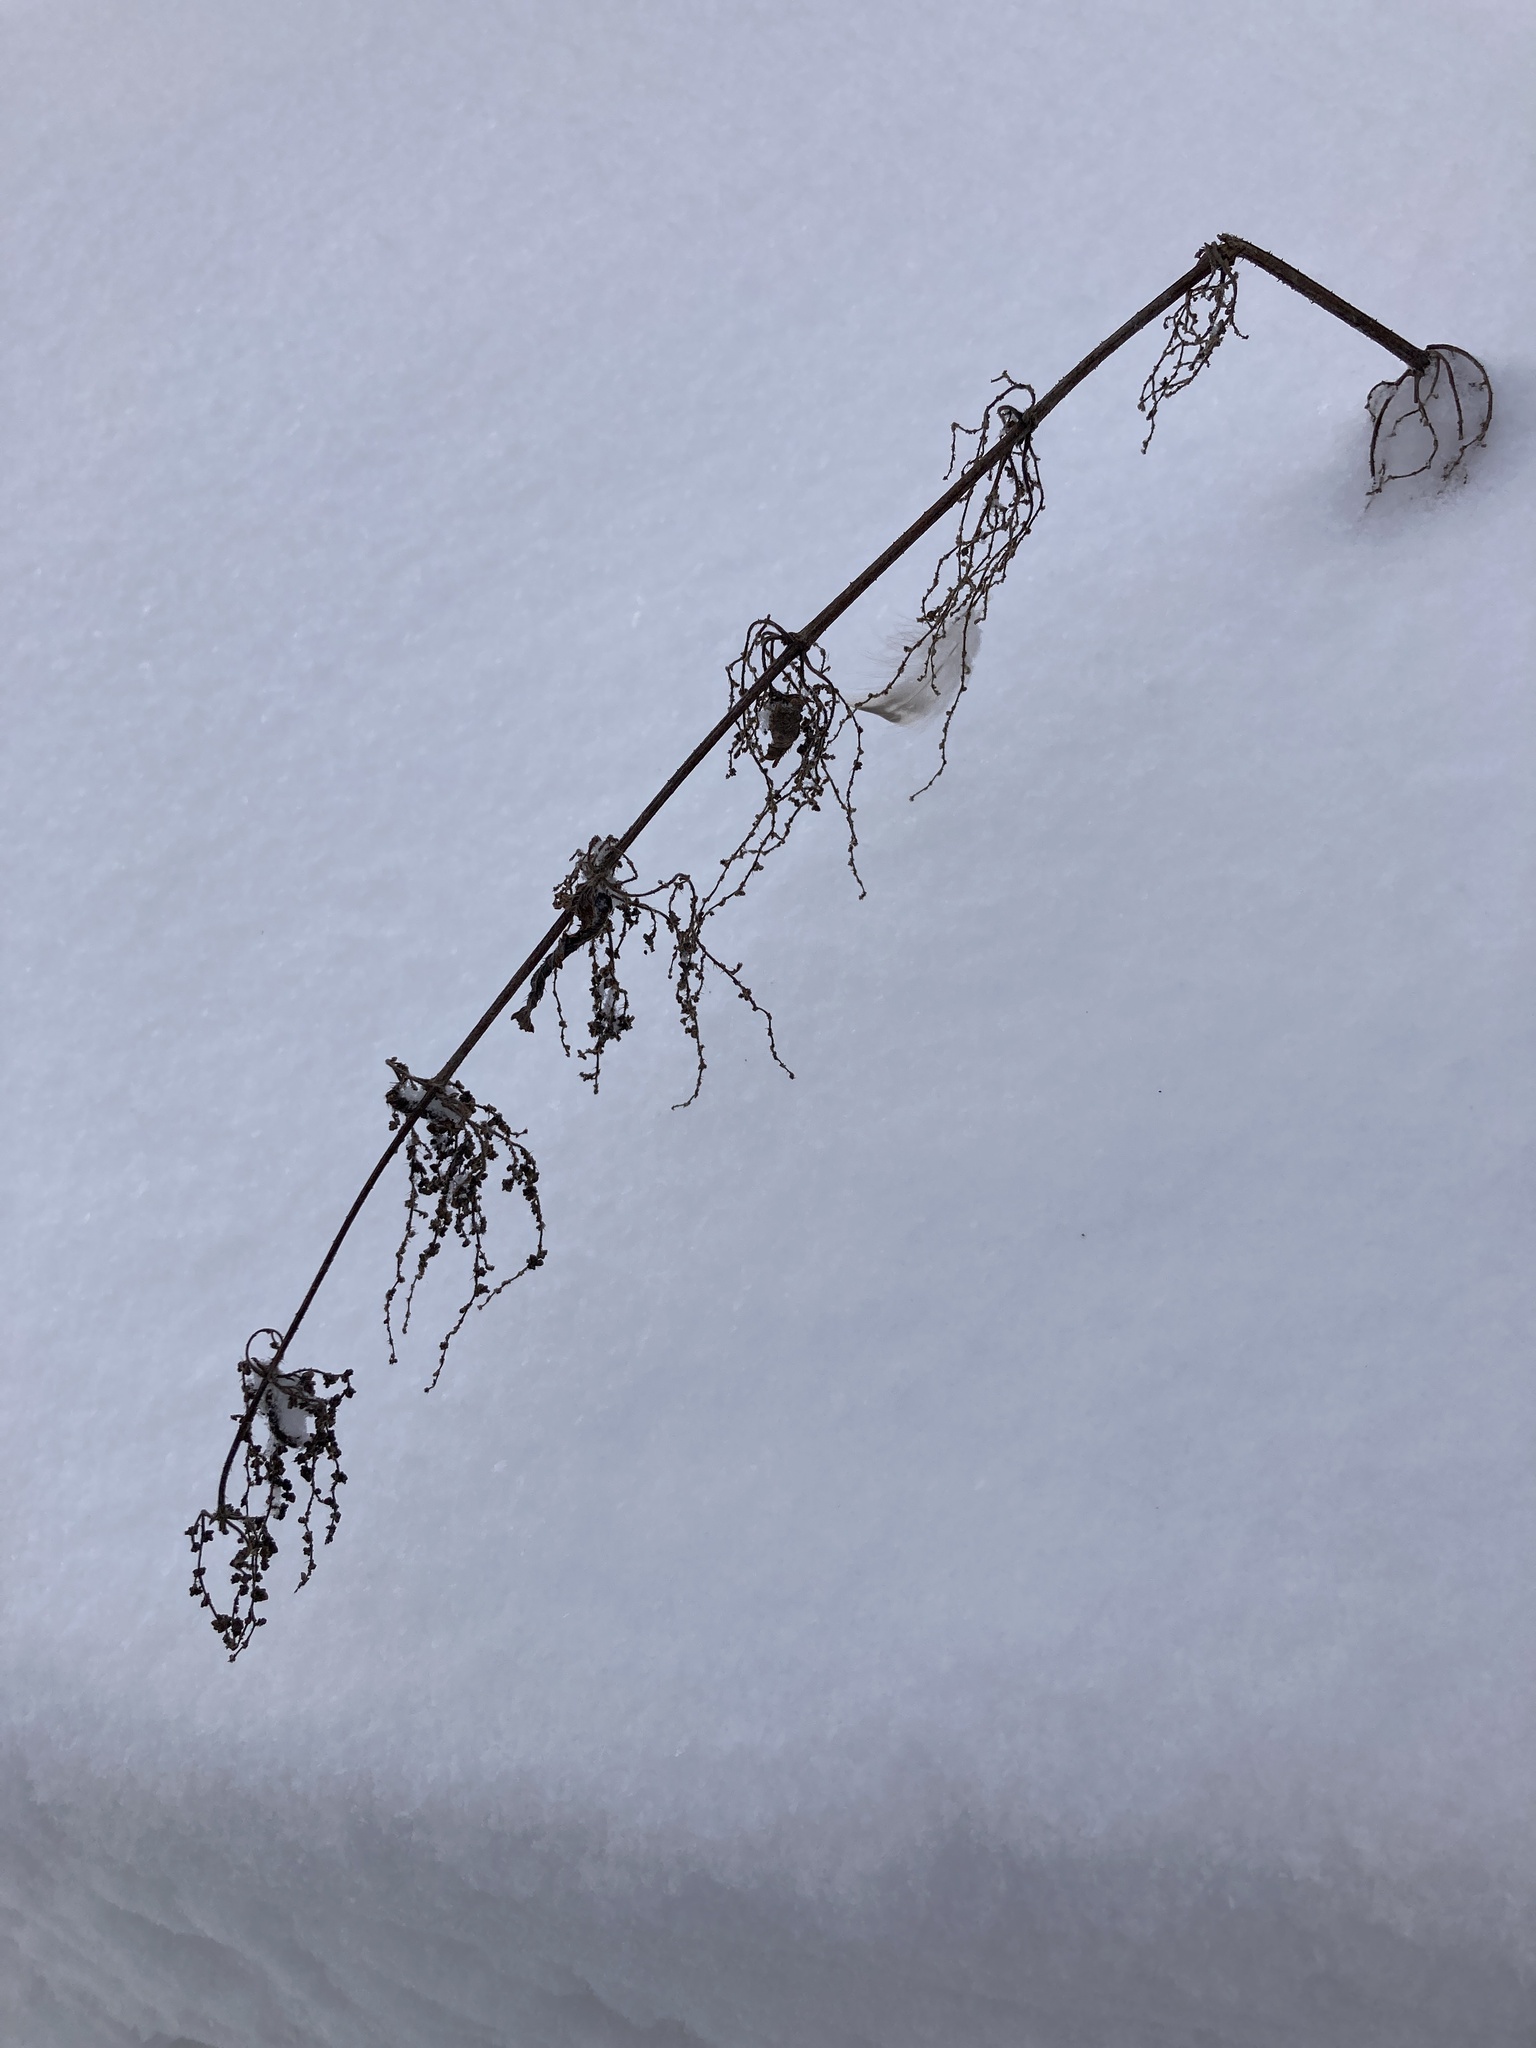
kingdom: Plantae
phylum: Tracheophyta
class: Magnoliopsida
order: Rosales
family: Urticaceae
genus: Urtica
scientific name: Urtica dioica
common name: Common nettle
